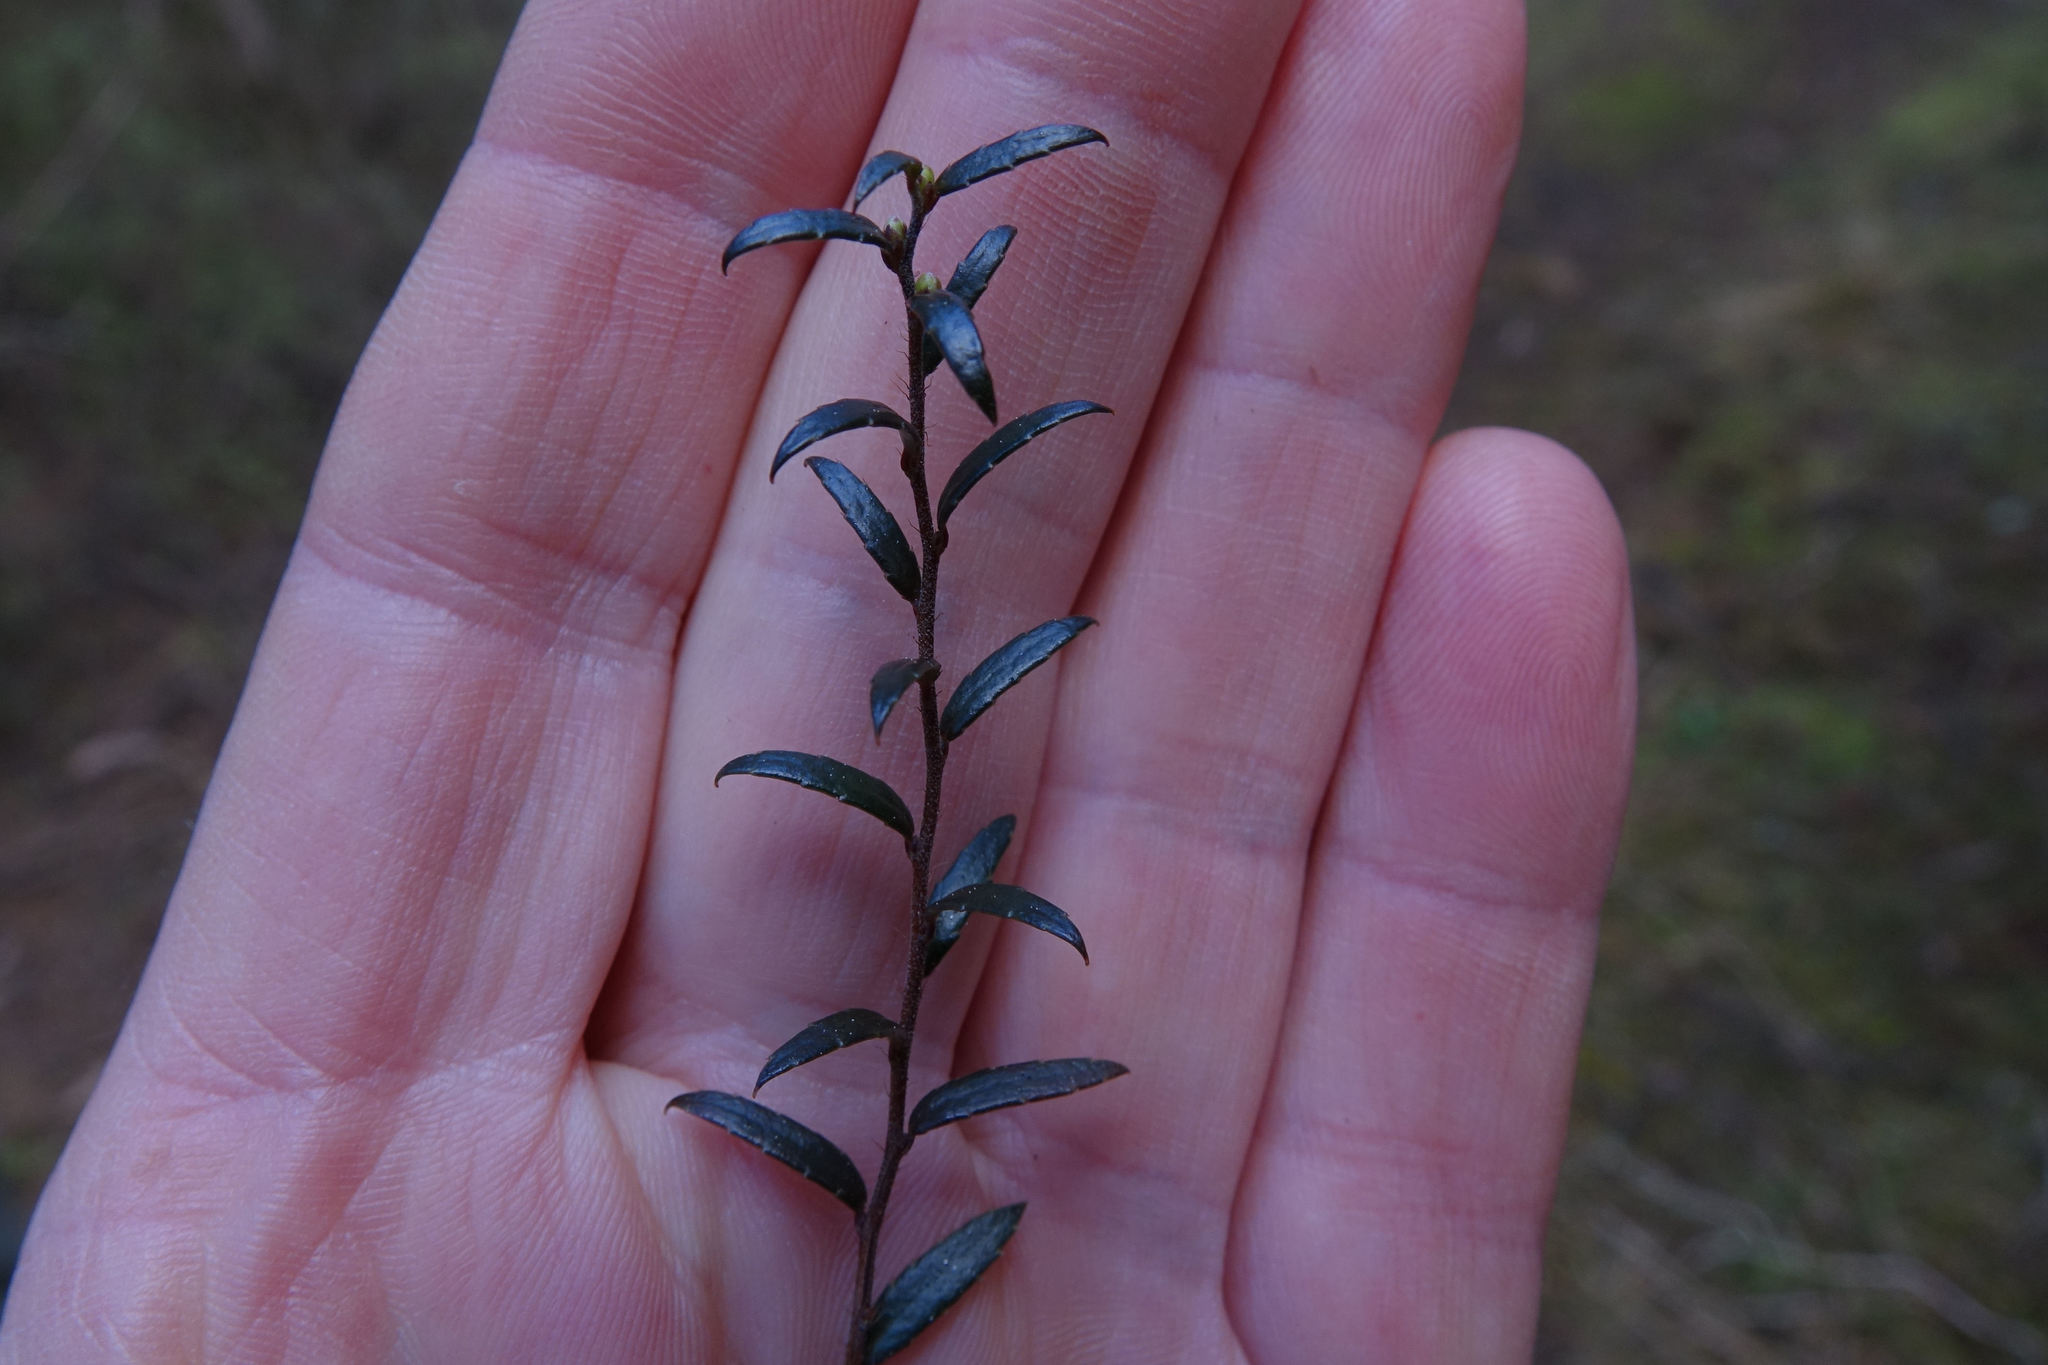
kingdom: Plantae
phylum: Tracheophyta
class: Magnoliopsida
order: Ericales
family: Ericaceae
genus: Gaultheria
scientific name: Gaultheria macrostigma
